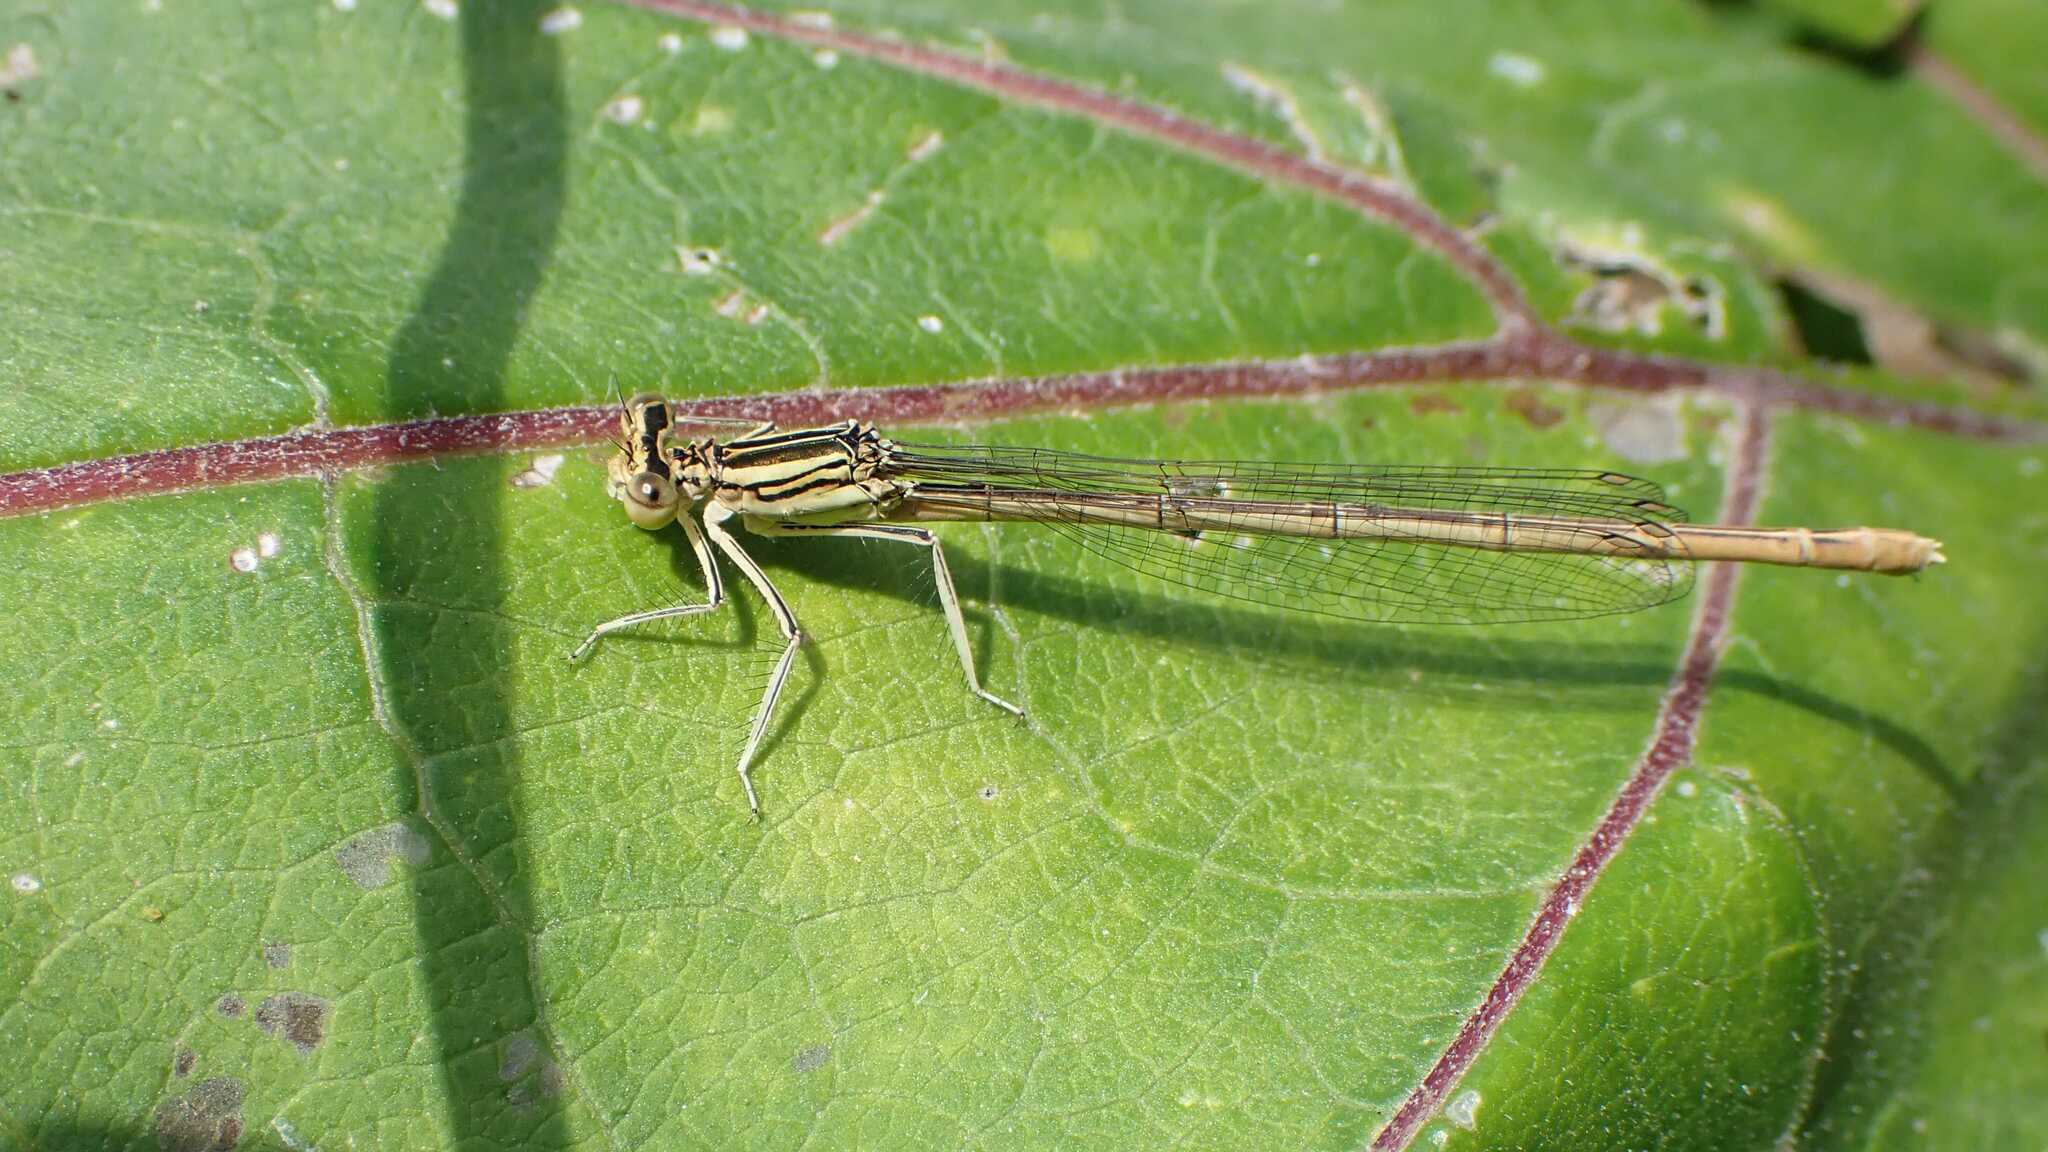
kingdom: Animalia
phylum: Arthropoda
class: Insecta
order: Odonata
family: Platycnemididae
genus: Platycnemis
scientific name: Platycnemis pennipes
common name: White-legged damselfly
